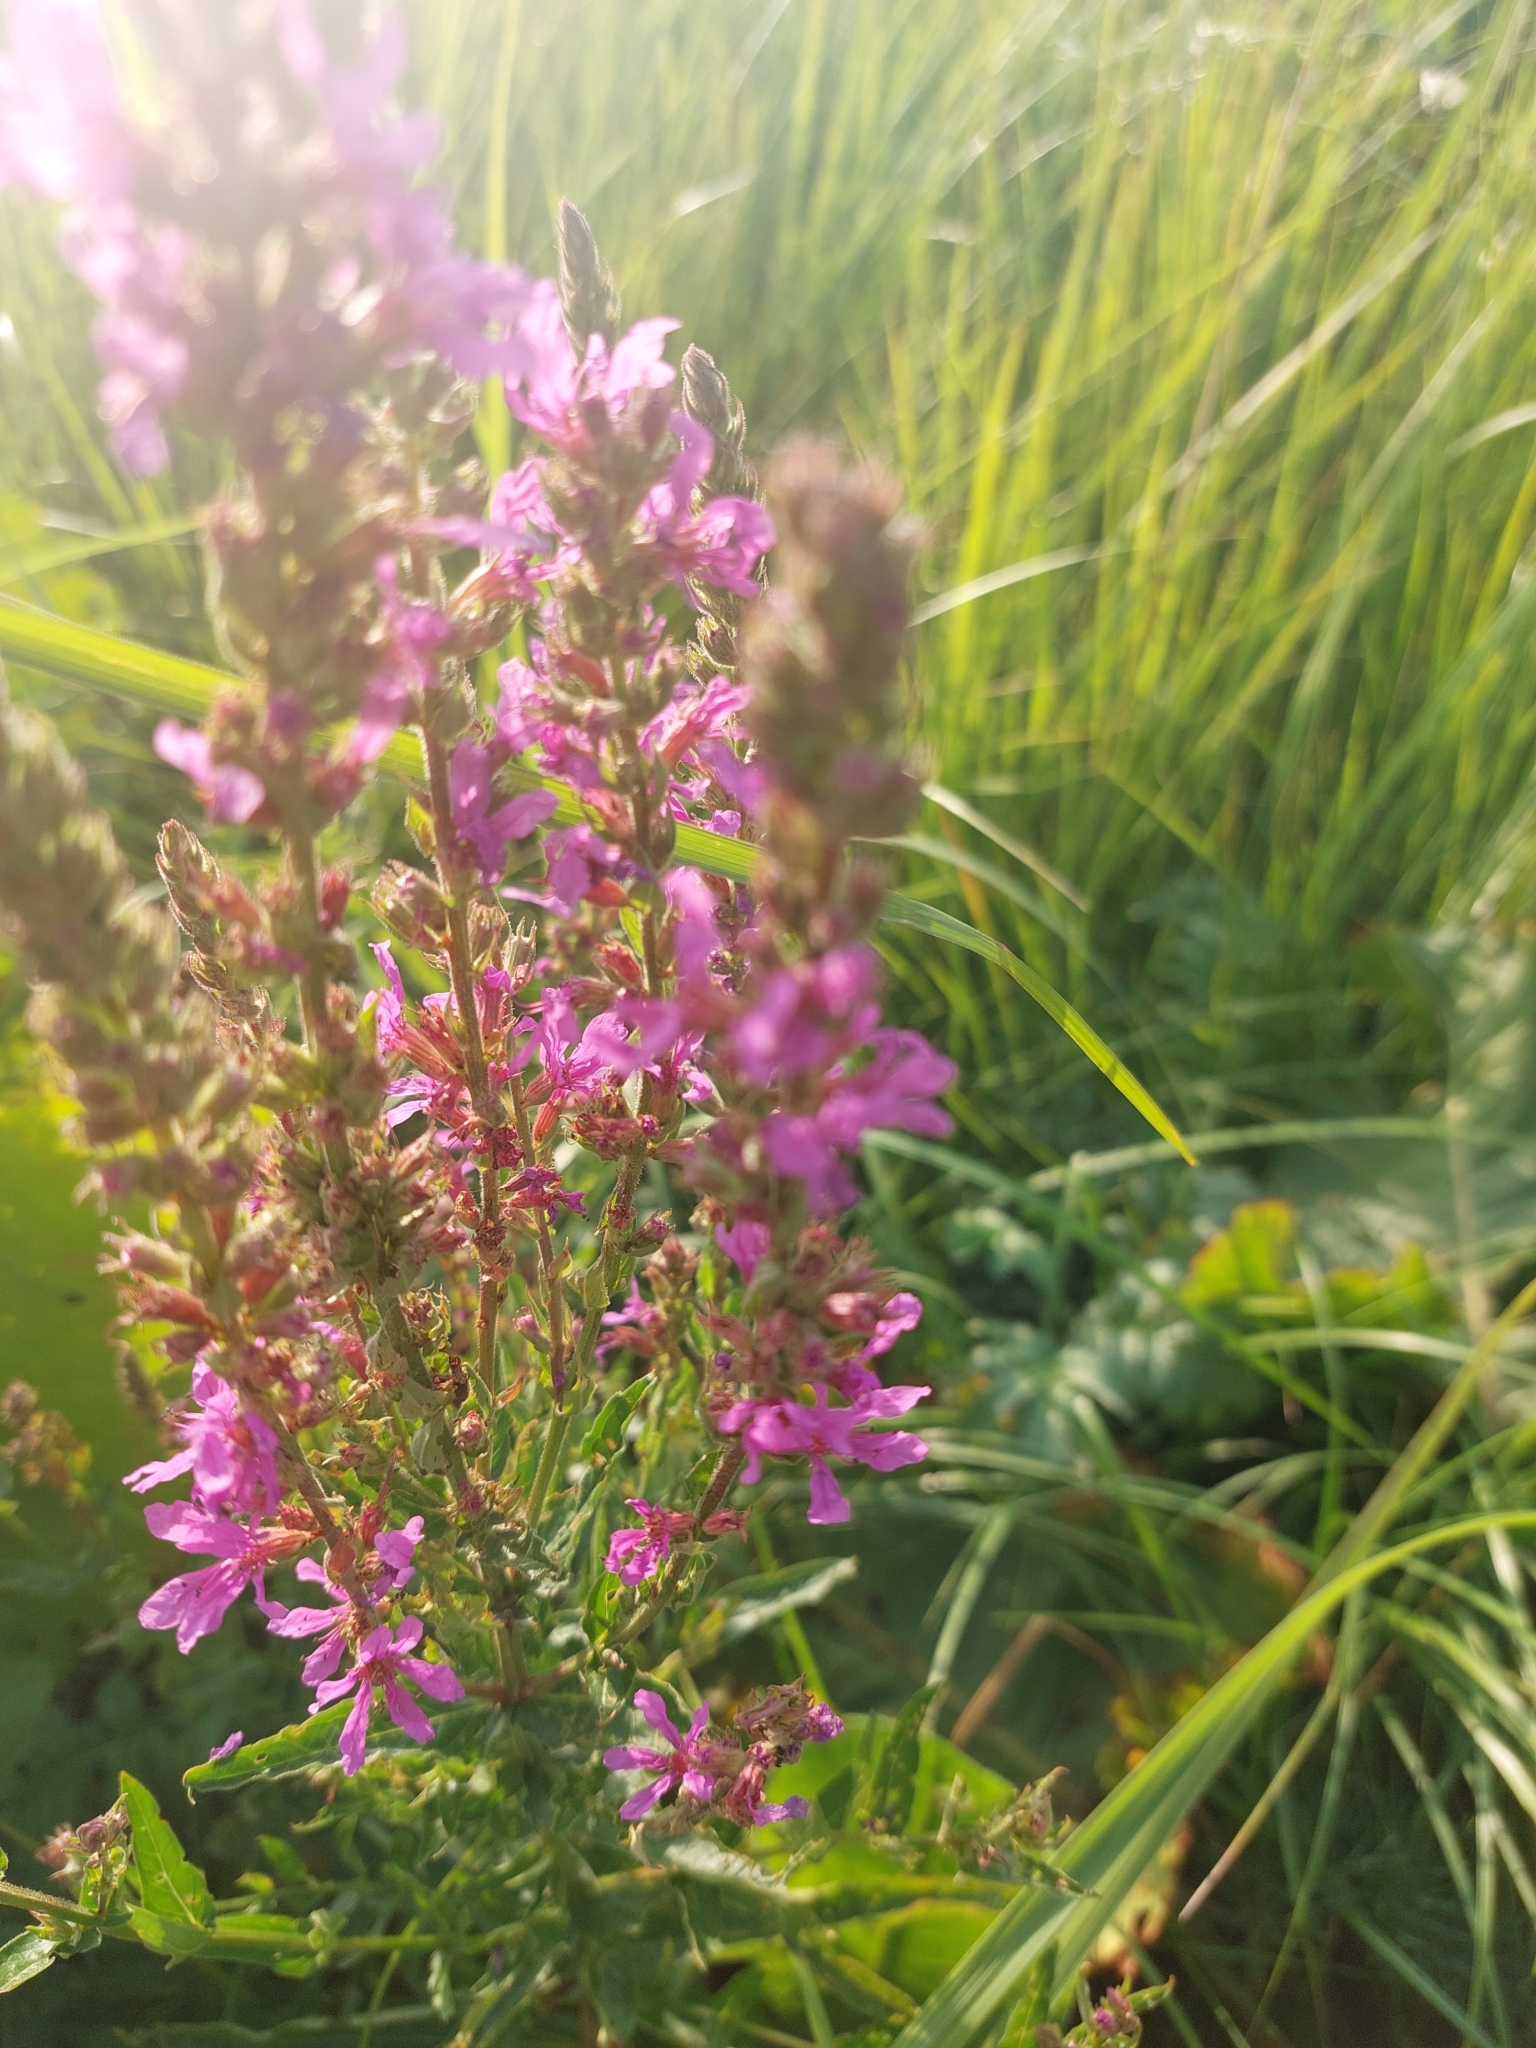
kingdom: Plantae
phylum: Tracheophyta
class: Magnoliopsida
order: Myrtales
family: Lythraceae
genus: Lythrum
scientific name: Lythrum salicaria
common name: Purple loosestrife
